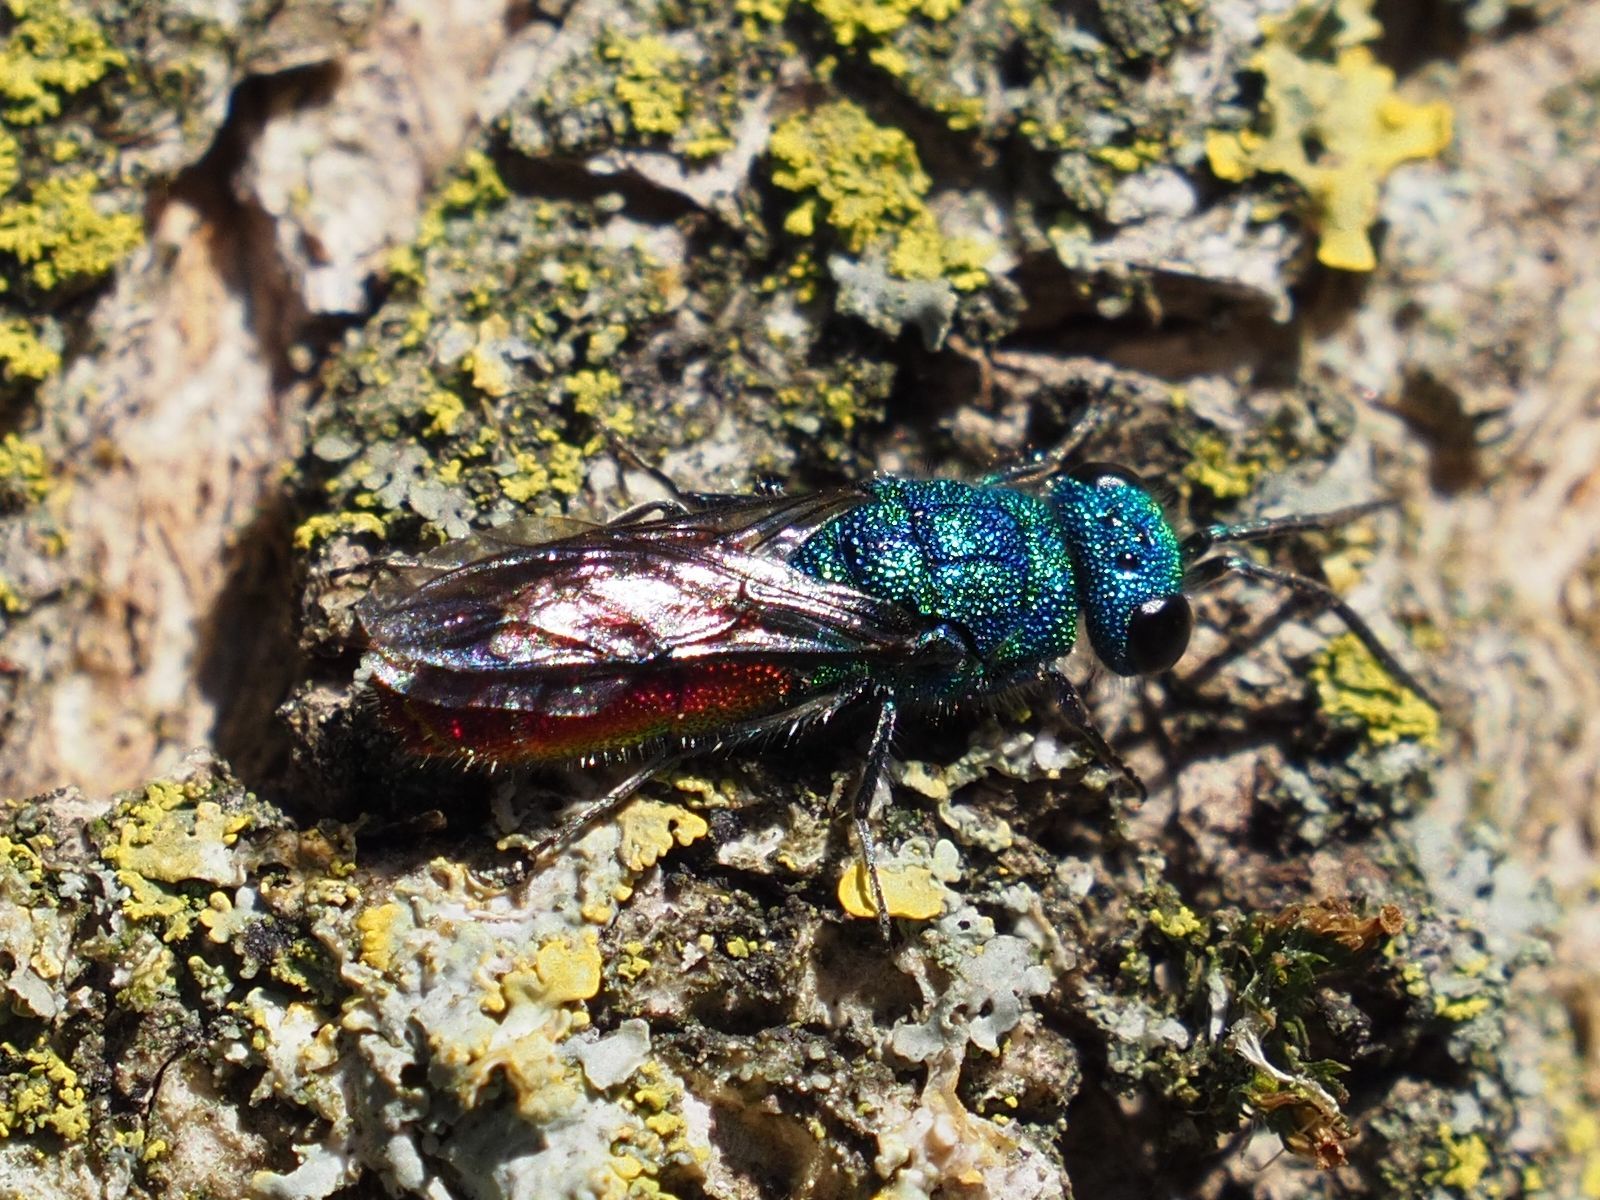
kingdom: Animalia
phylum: Arthropoda
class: Insecta
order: Hymenoptera
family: Chrysididae
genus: Chrysis
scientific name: Chrysis terminata
